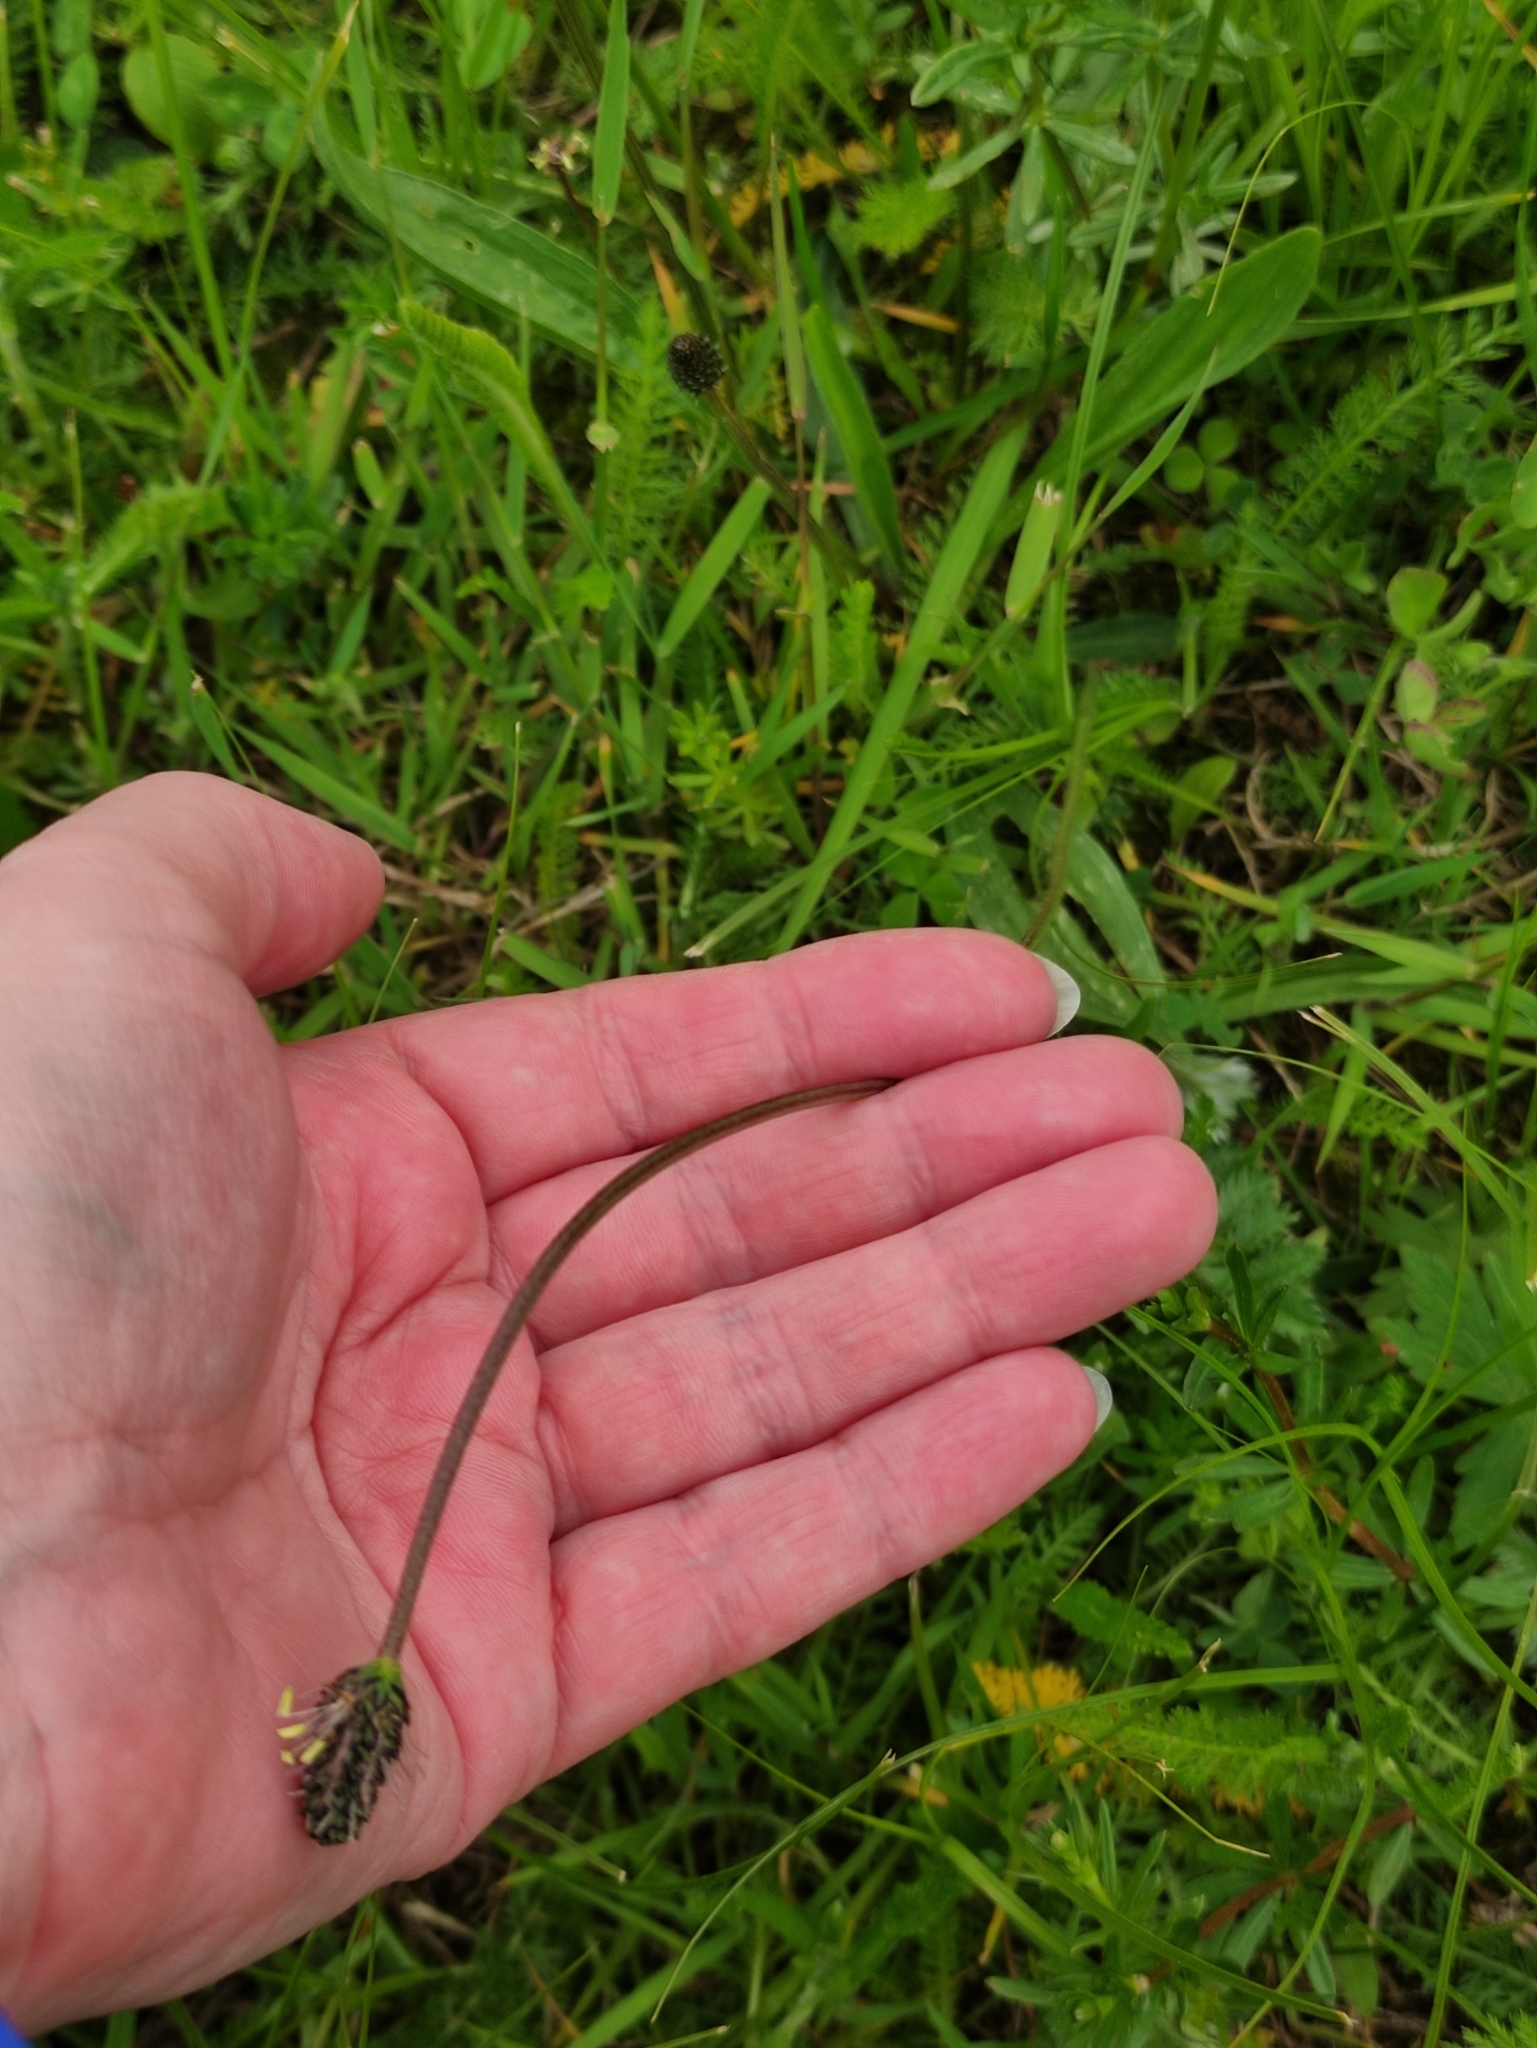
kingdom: Plantae
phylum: Tracheophyta
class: Magnoliopsida
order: Lamiales
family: Plantaginaceae
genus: Plantago
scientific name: Plantago lanceolata
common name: Ribwort plantain
